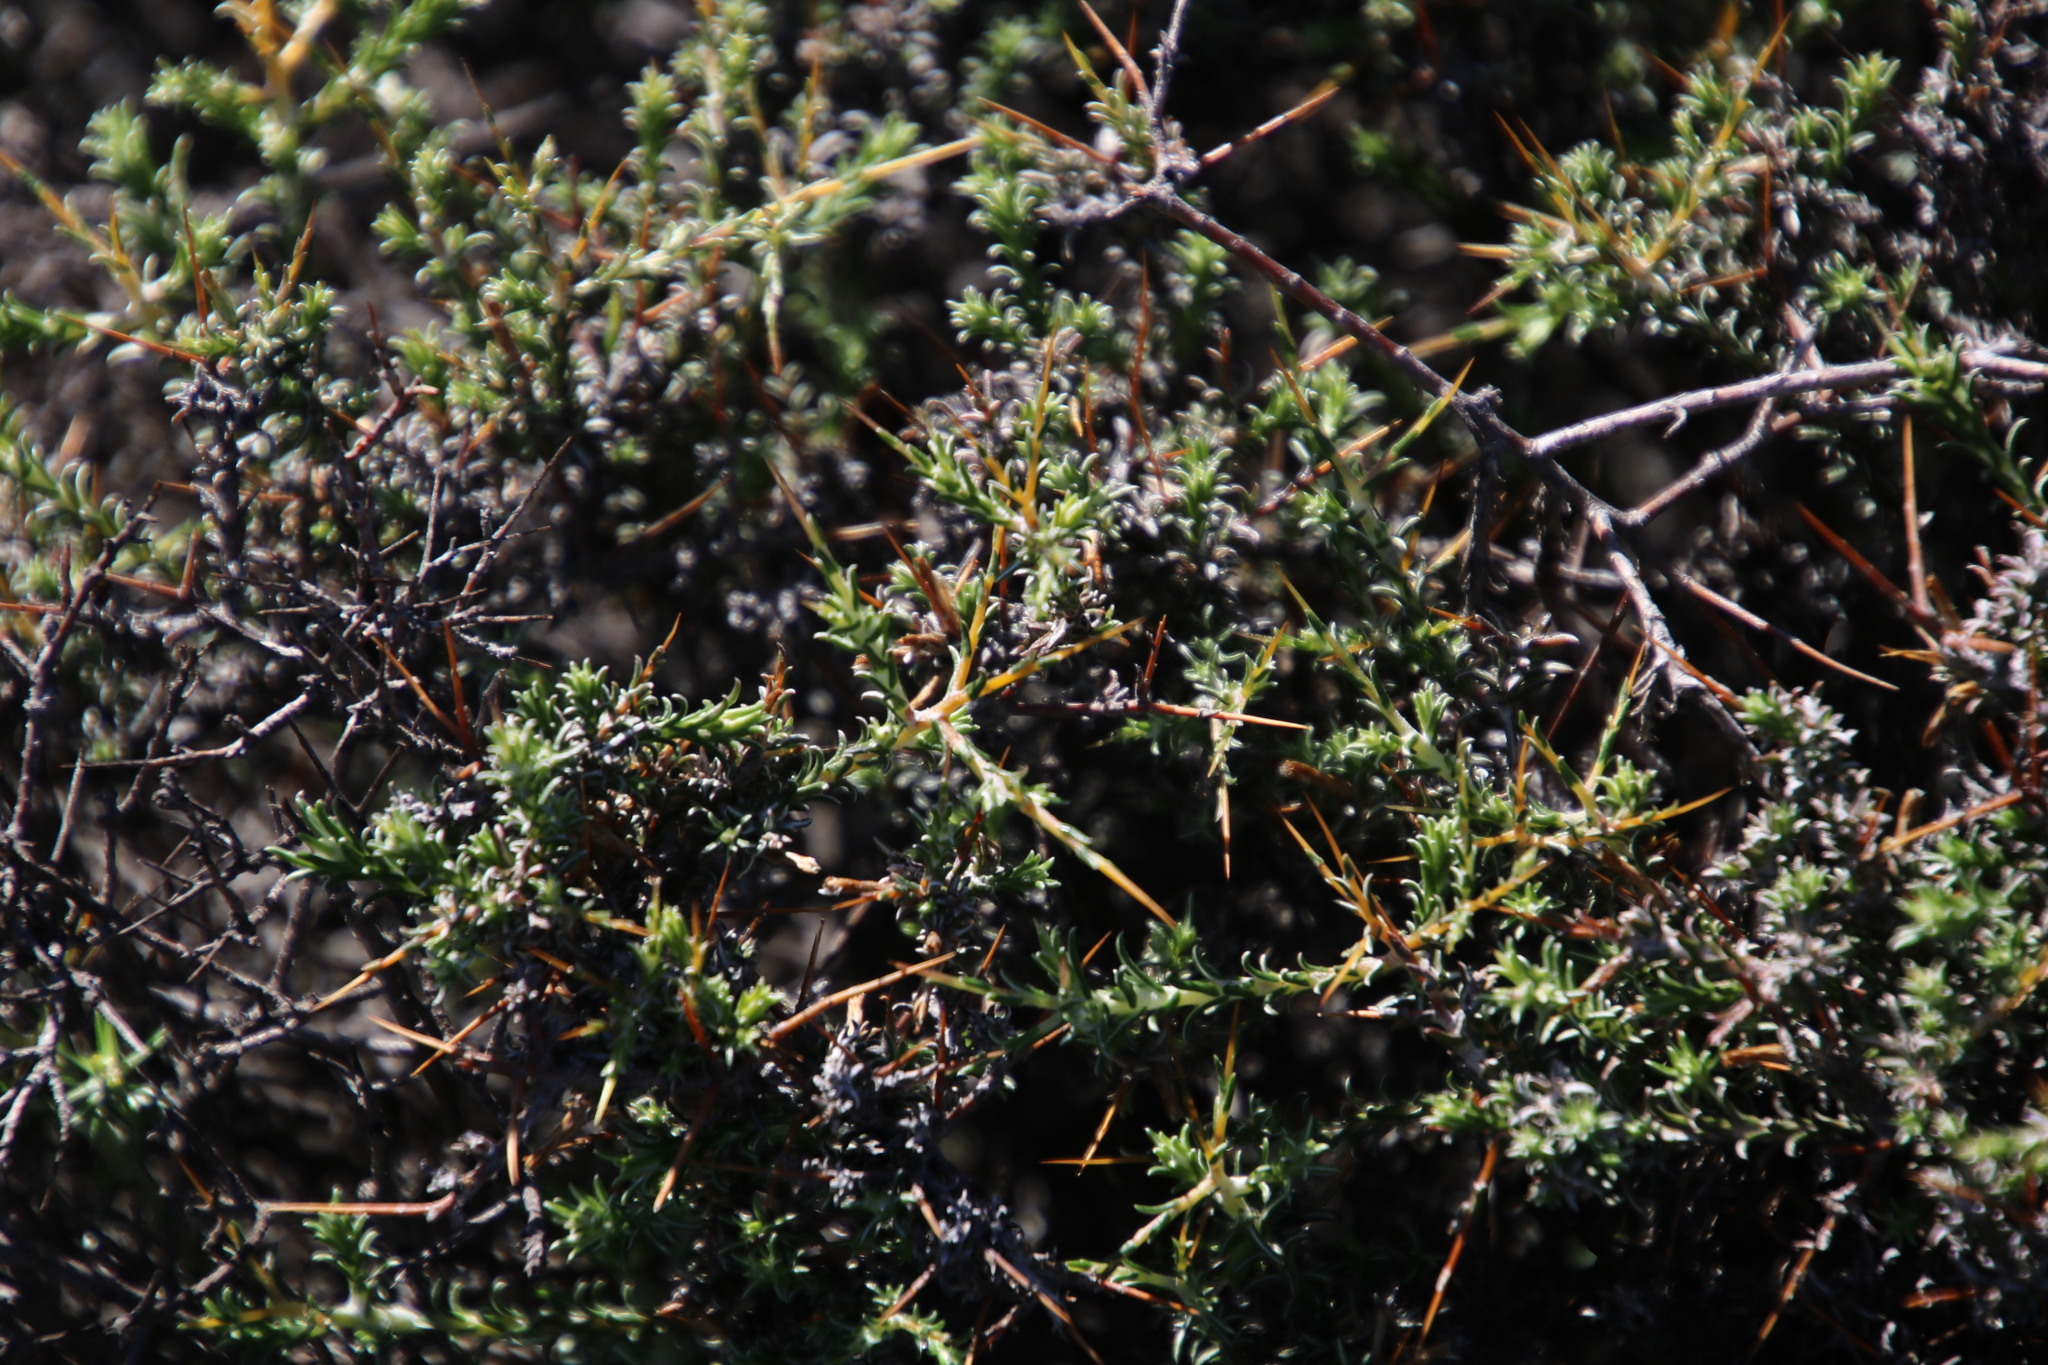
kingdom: Plantae
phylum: Tracheophyta
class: Magnoliopsida
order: Asterales
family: Asteraceae
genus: Pterothrix
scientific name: Pterothrix spinescens
